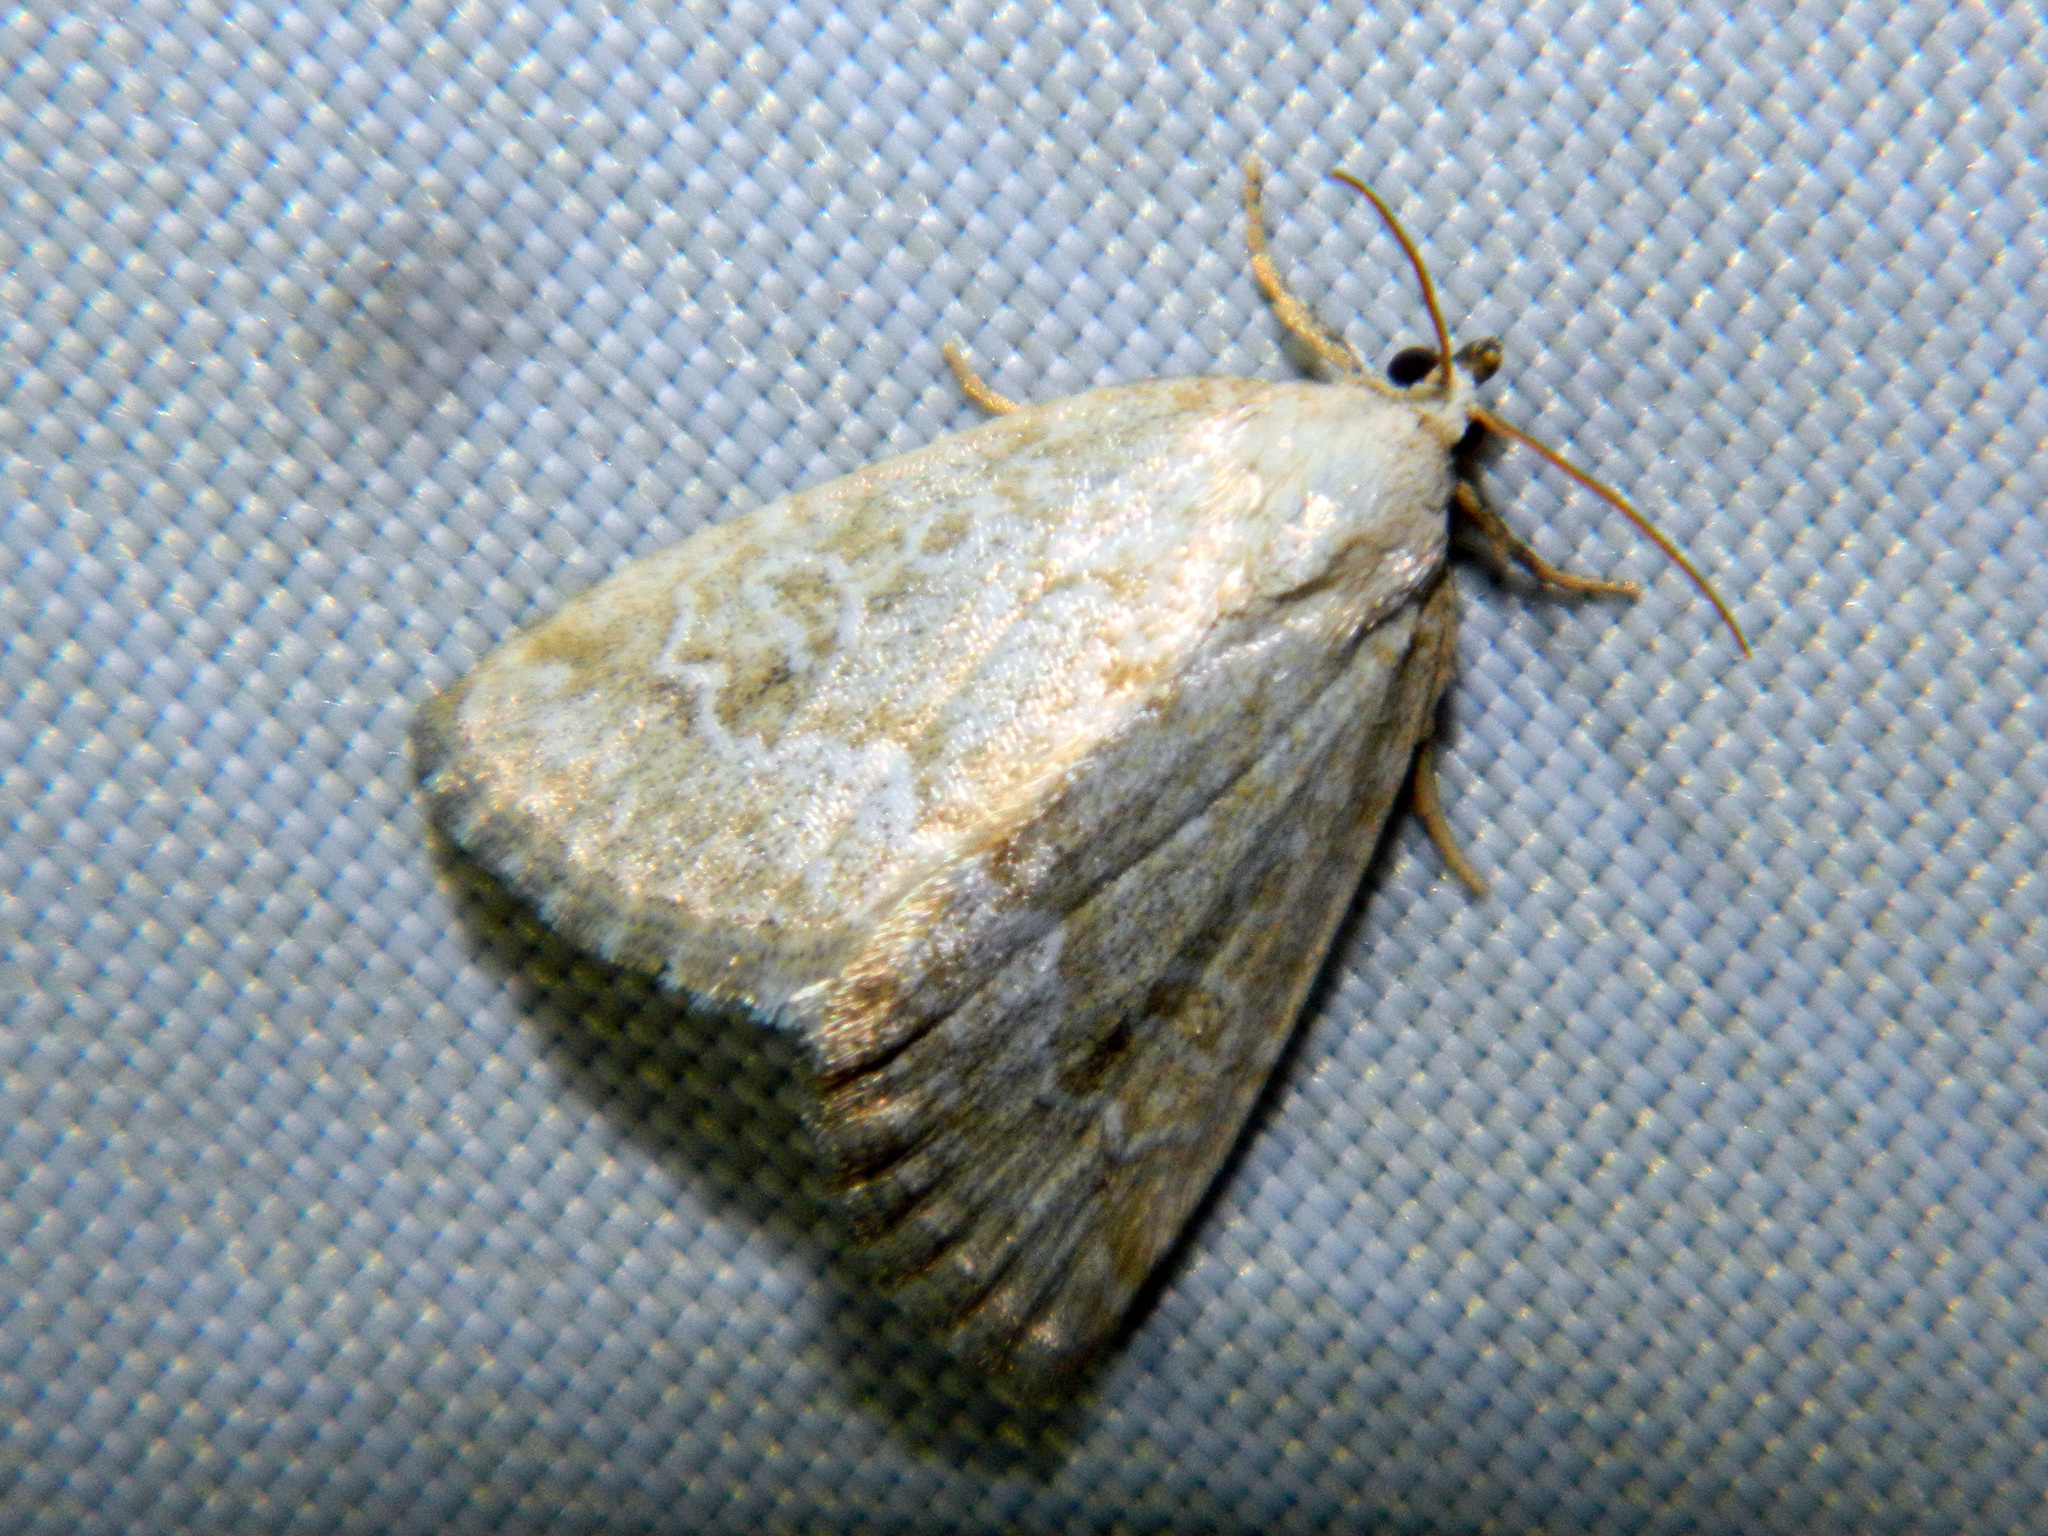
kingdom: Animalia
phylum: Arthropoda
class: Insecta
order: Lepidoptera
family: Noctuidae
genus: Protodeltote
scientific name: Protodeltote albidula
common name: Pale glyph
